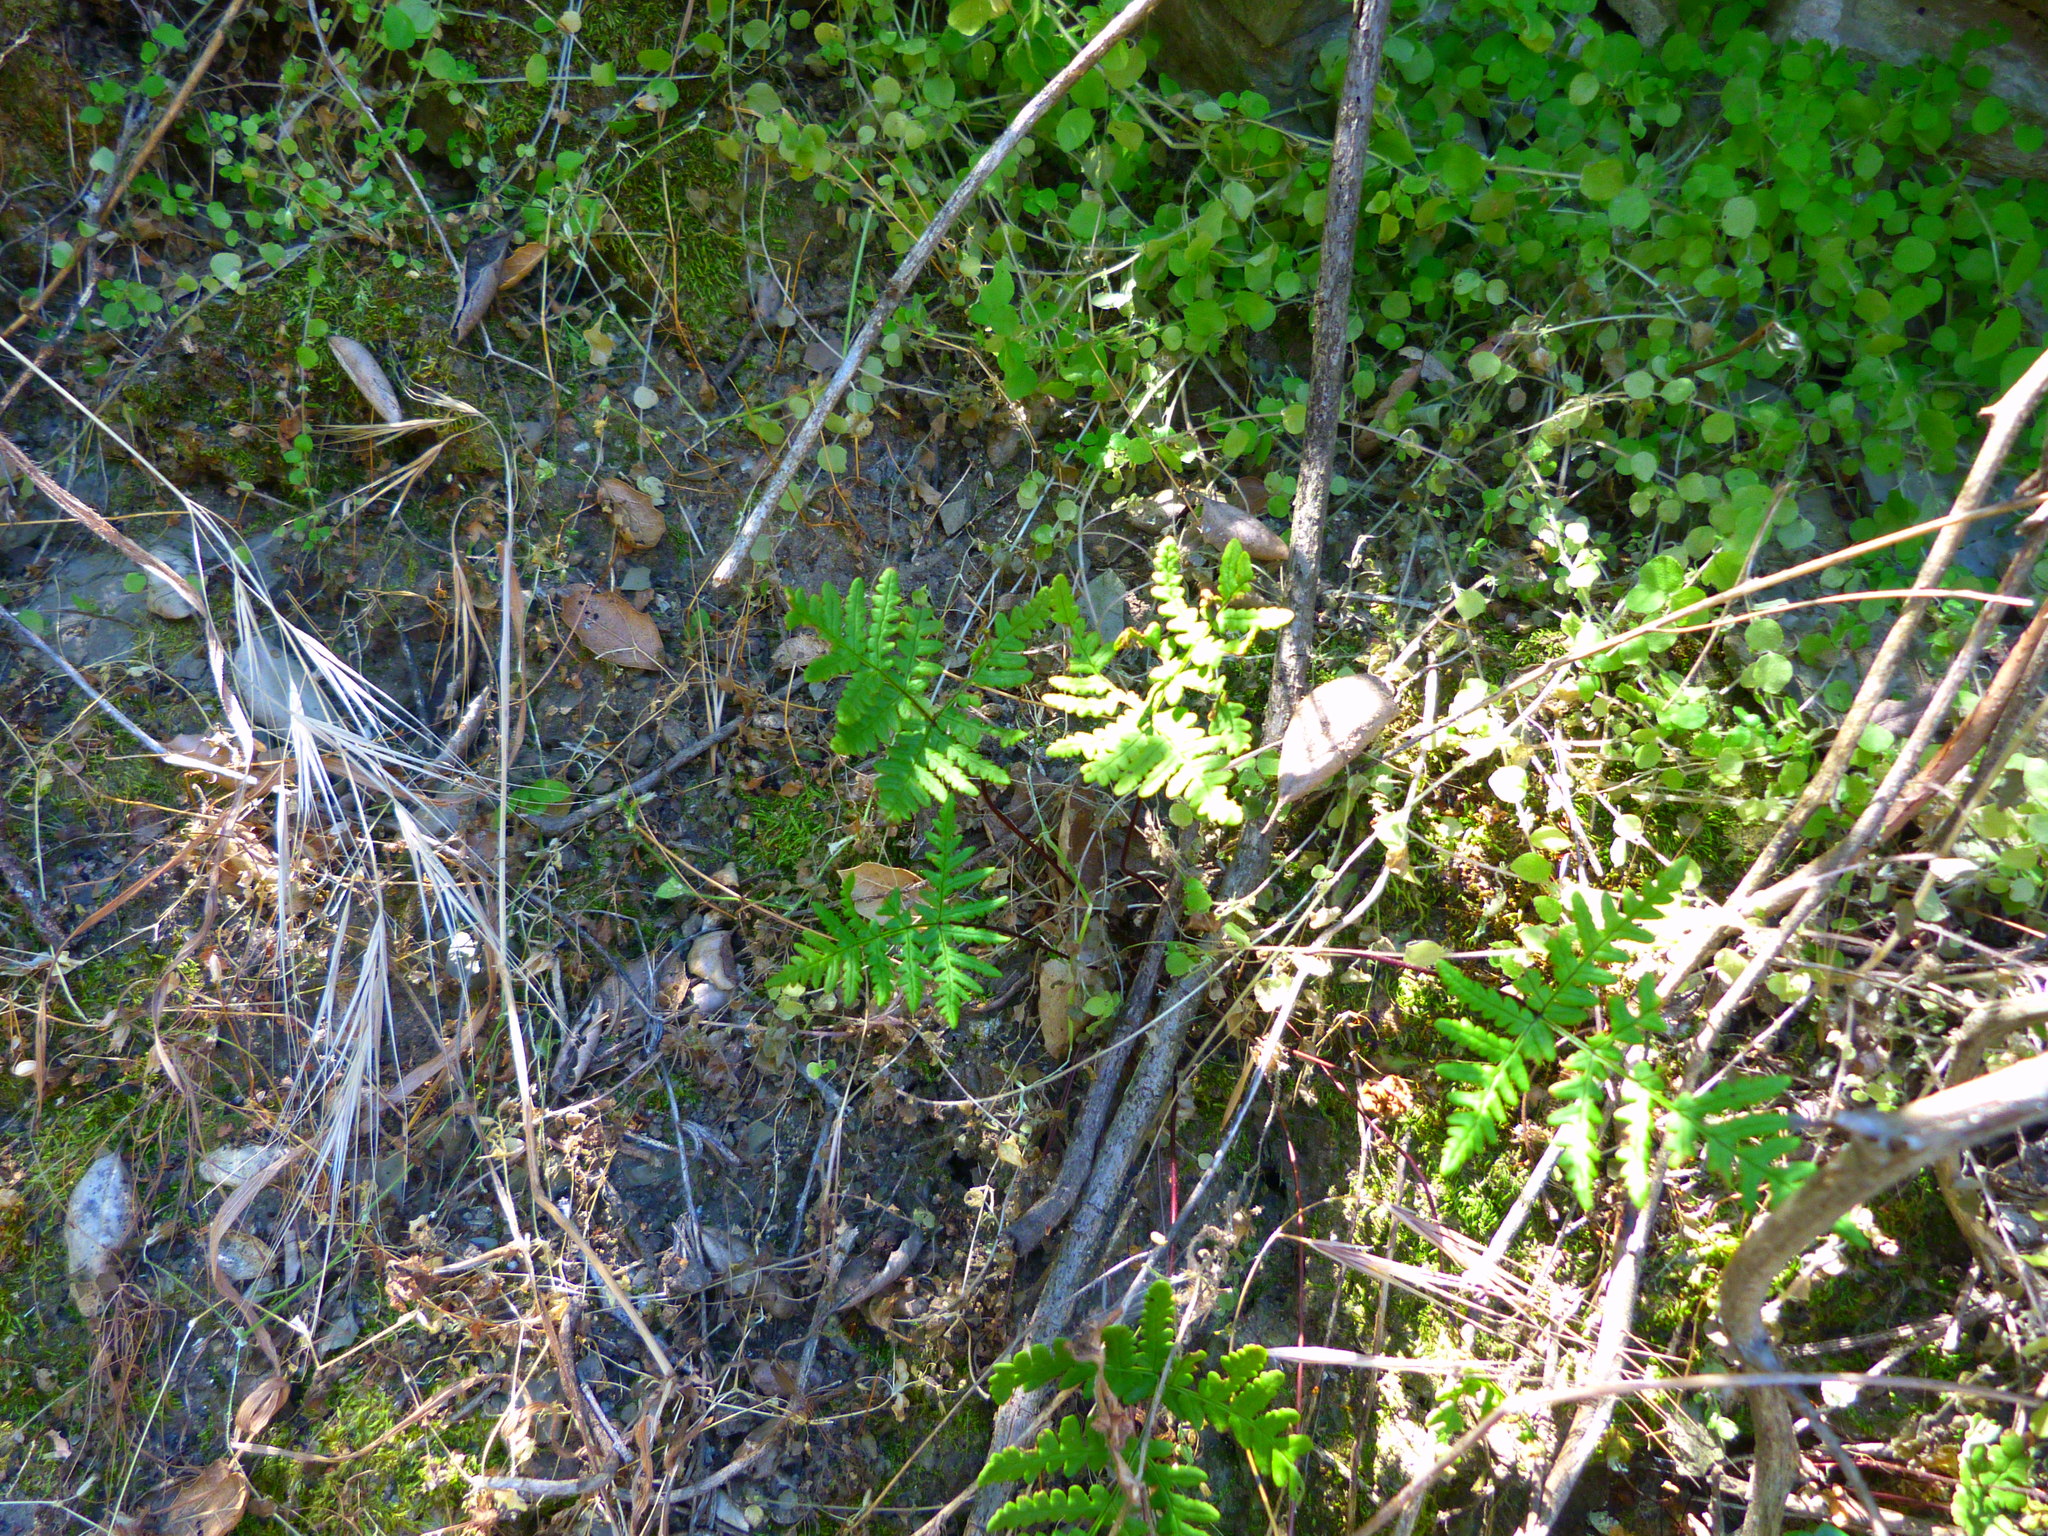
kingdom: Plantae
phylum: Tracheophyta
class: Polypodiopsida
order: Polypodiales
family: Pteridaceae
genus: Pentagramma
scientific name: Pentagramma triangularis
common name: Gold fern
